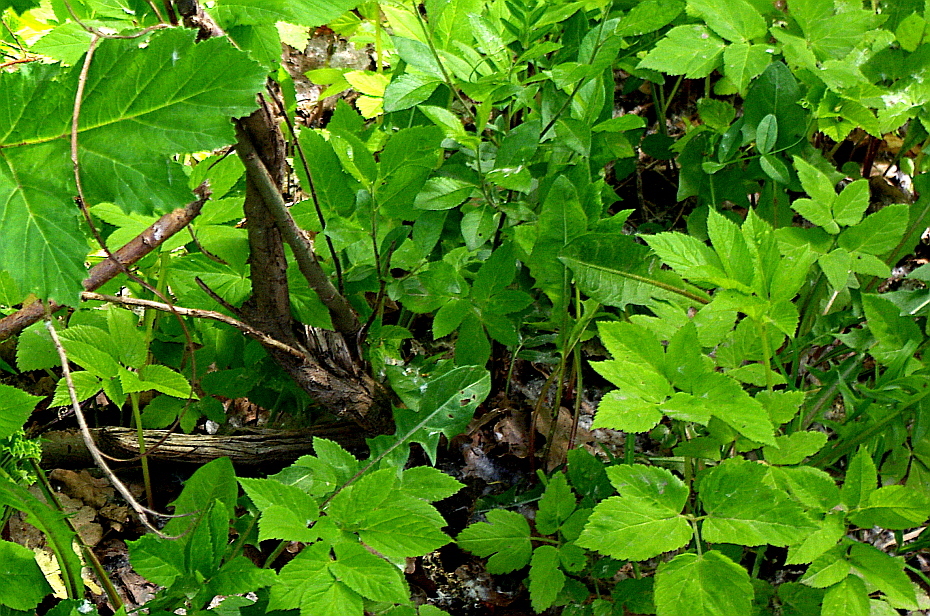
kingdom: Plantae
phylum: Tracheophyta
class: Magnoliopsida
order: Apiales
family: Apiaceae
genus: Aegopodium
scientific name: Aegopodium podagraria
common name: Ground-elder
